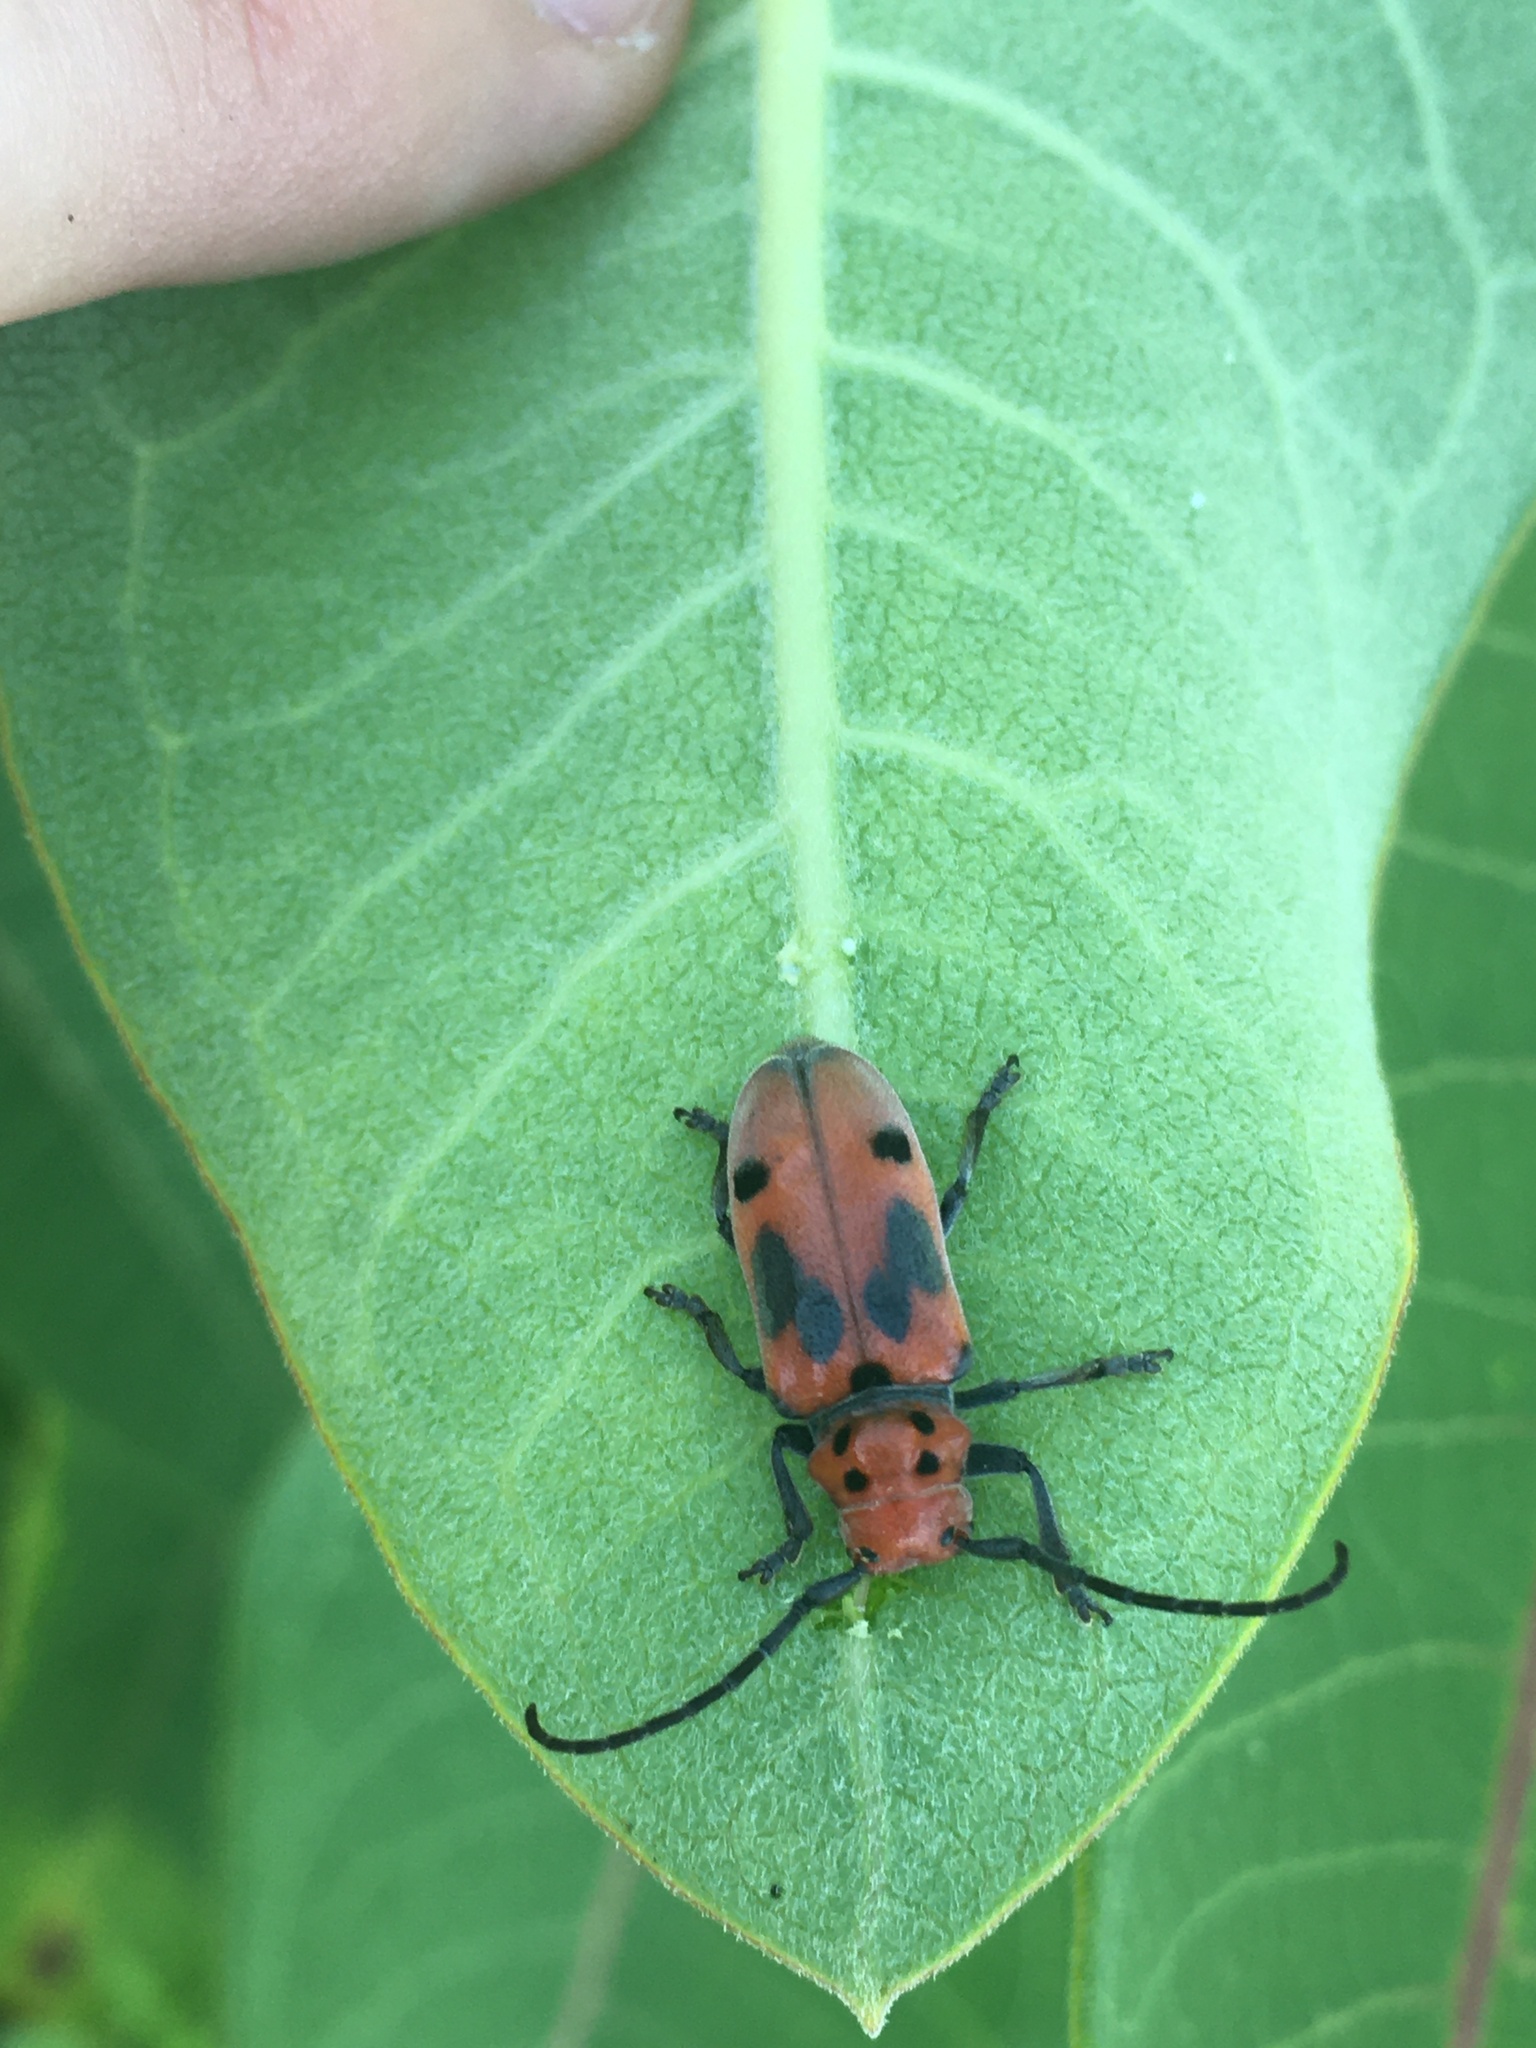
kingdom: Animalia
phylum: Arthropoda
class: Insecta
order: Coleoptera
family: Cerambycidae
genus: Tetraopes
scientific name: Tetraopes tetrophthalmus
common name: Red milkweed beetle
